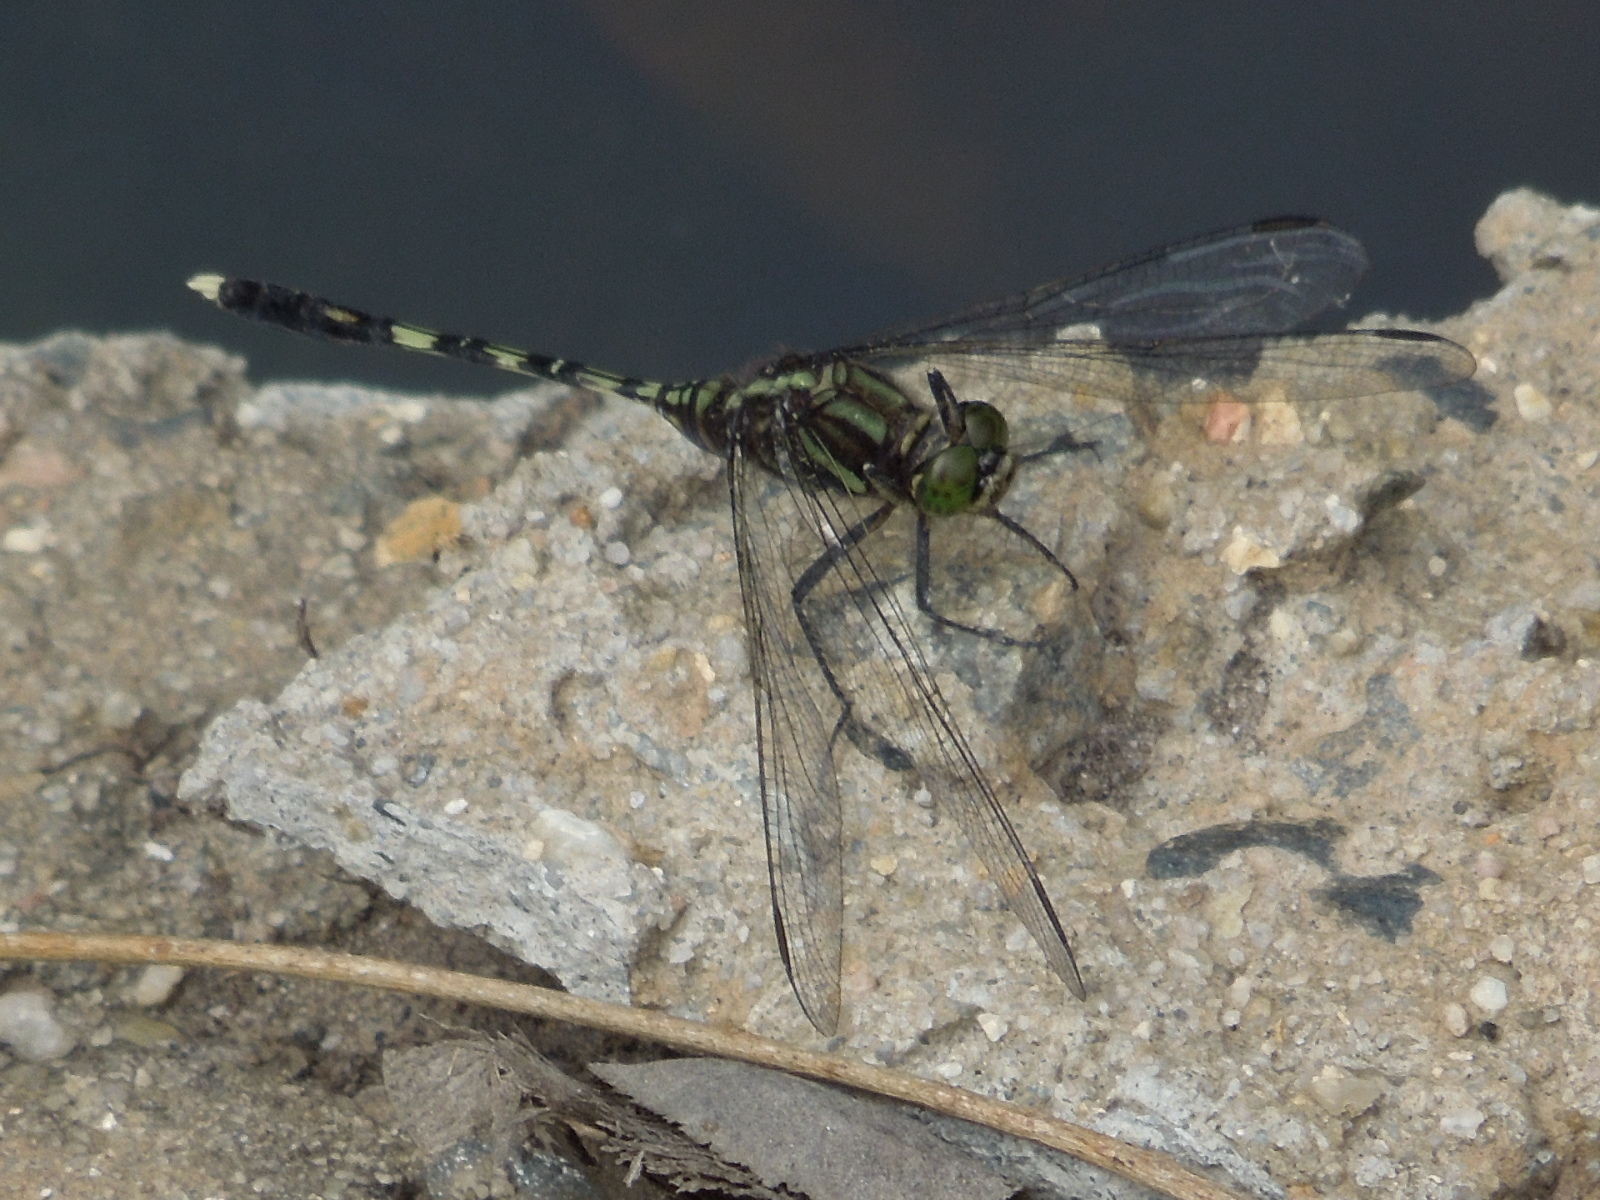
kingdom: Animalia
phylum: Arthropoda
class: Insecta
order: Odonata
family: Libellulidae
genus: Orthetrum
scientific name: Orthetrum serapia
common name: Green skimmer
